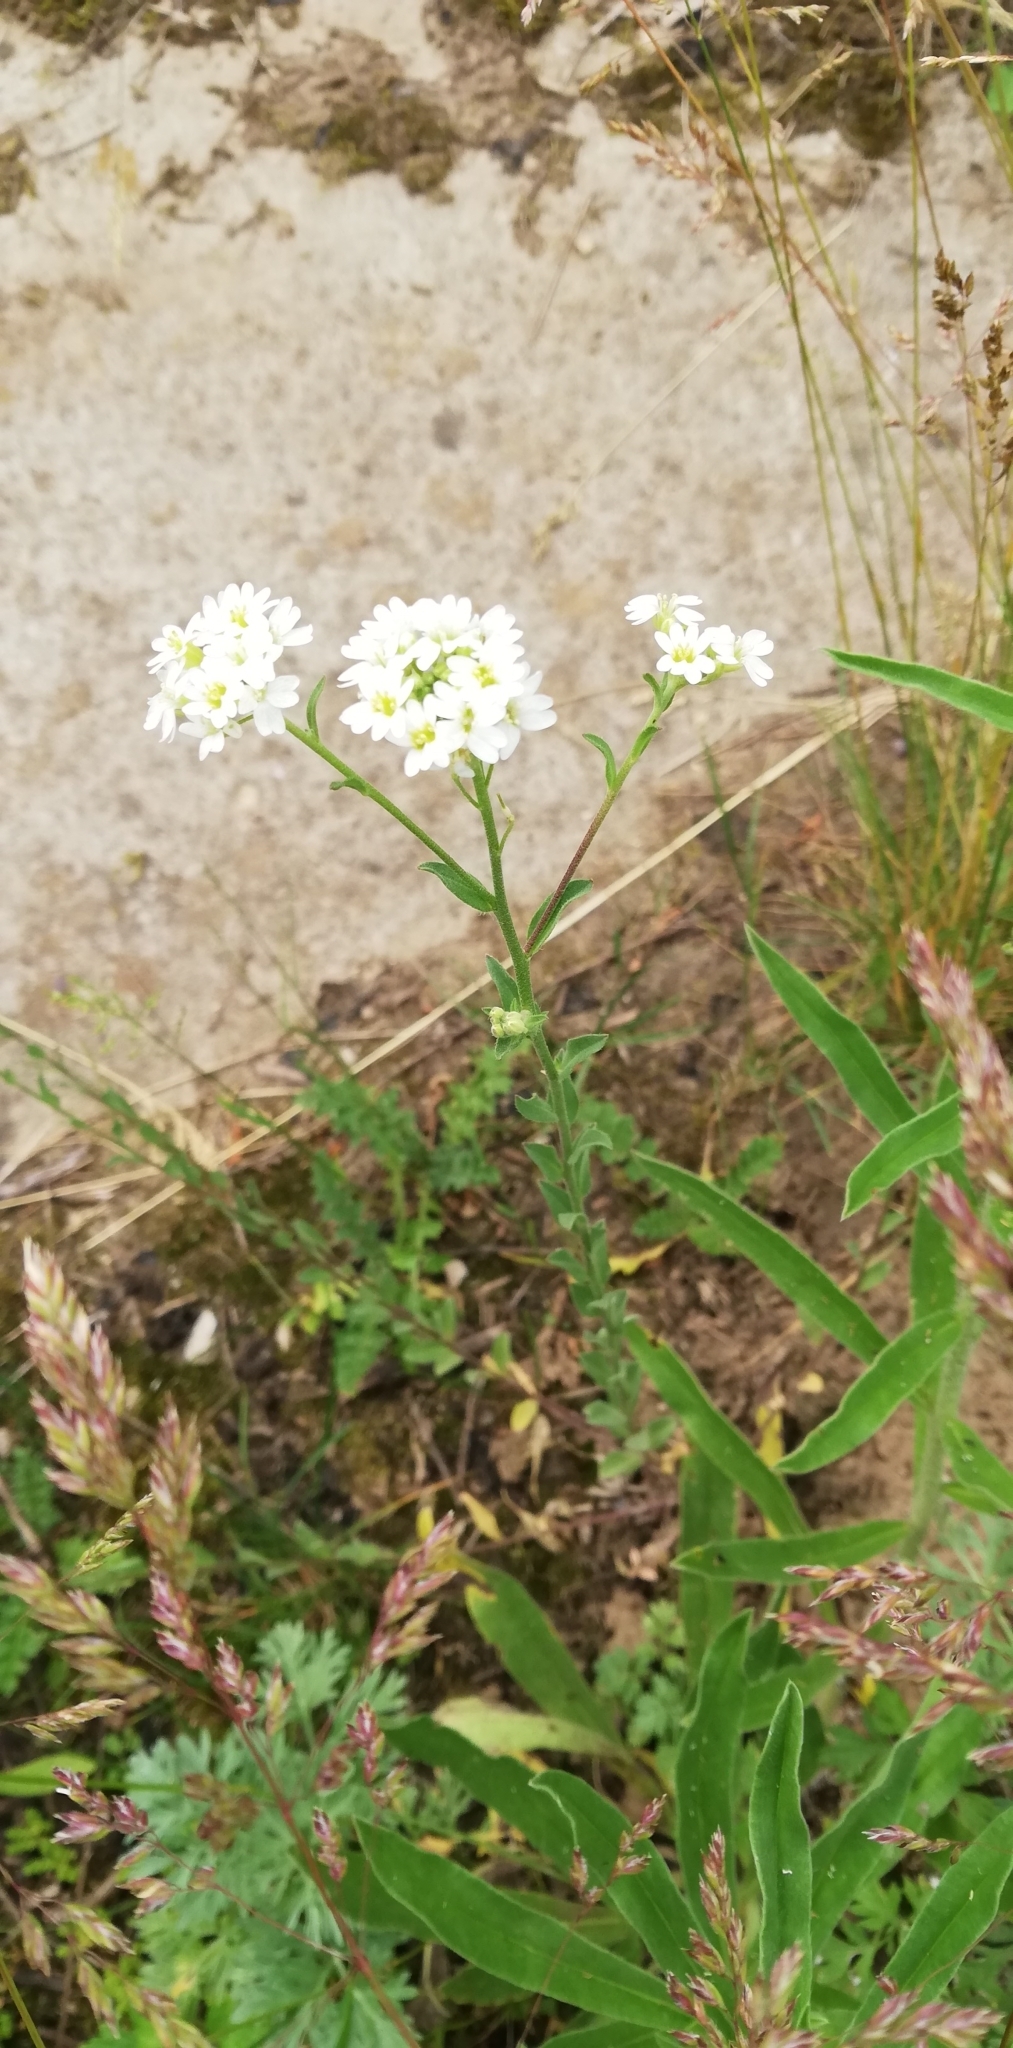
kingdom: Plantae
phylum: Tracheophyta
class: Magnoliopsida
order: Brassicales
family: Brassicaceae
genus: Berteroa
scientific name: Berteroa incana
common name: Hoary alison
